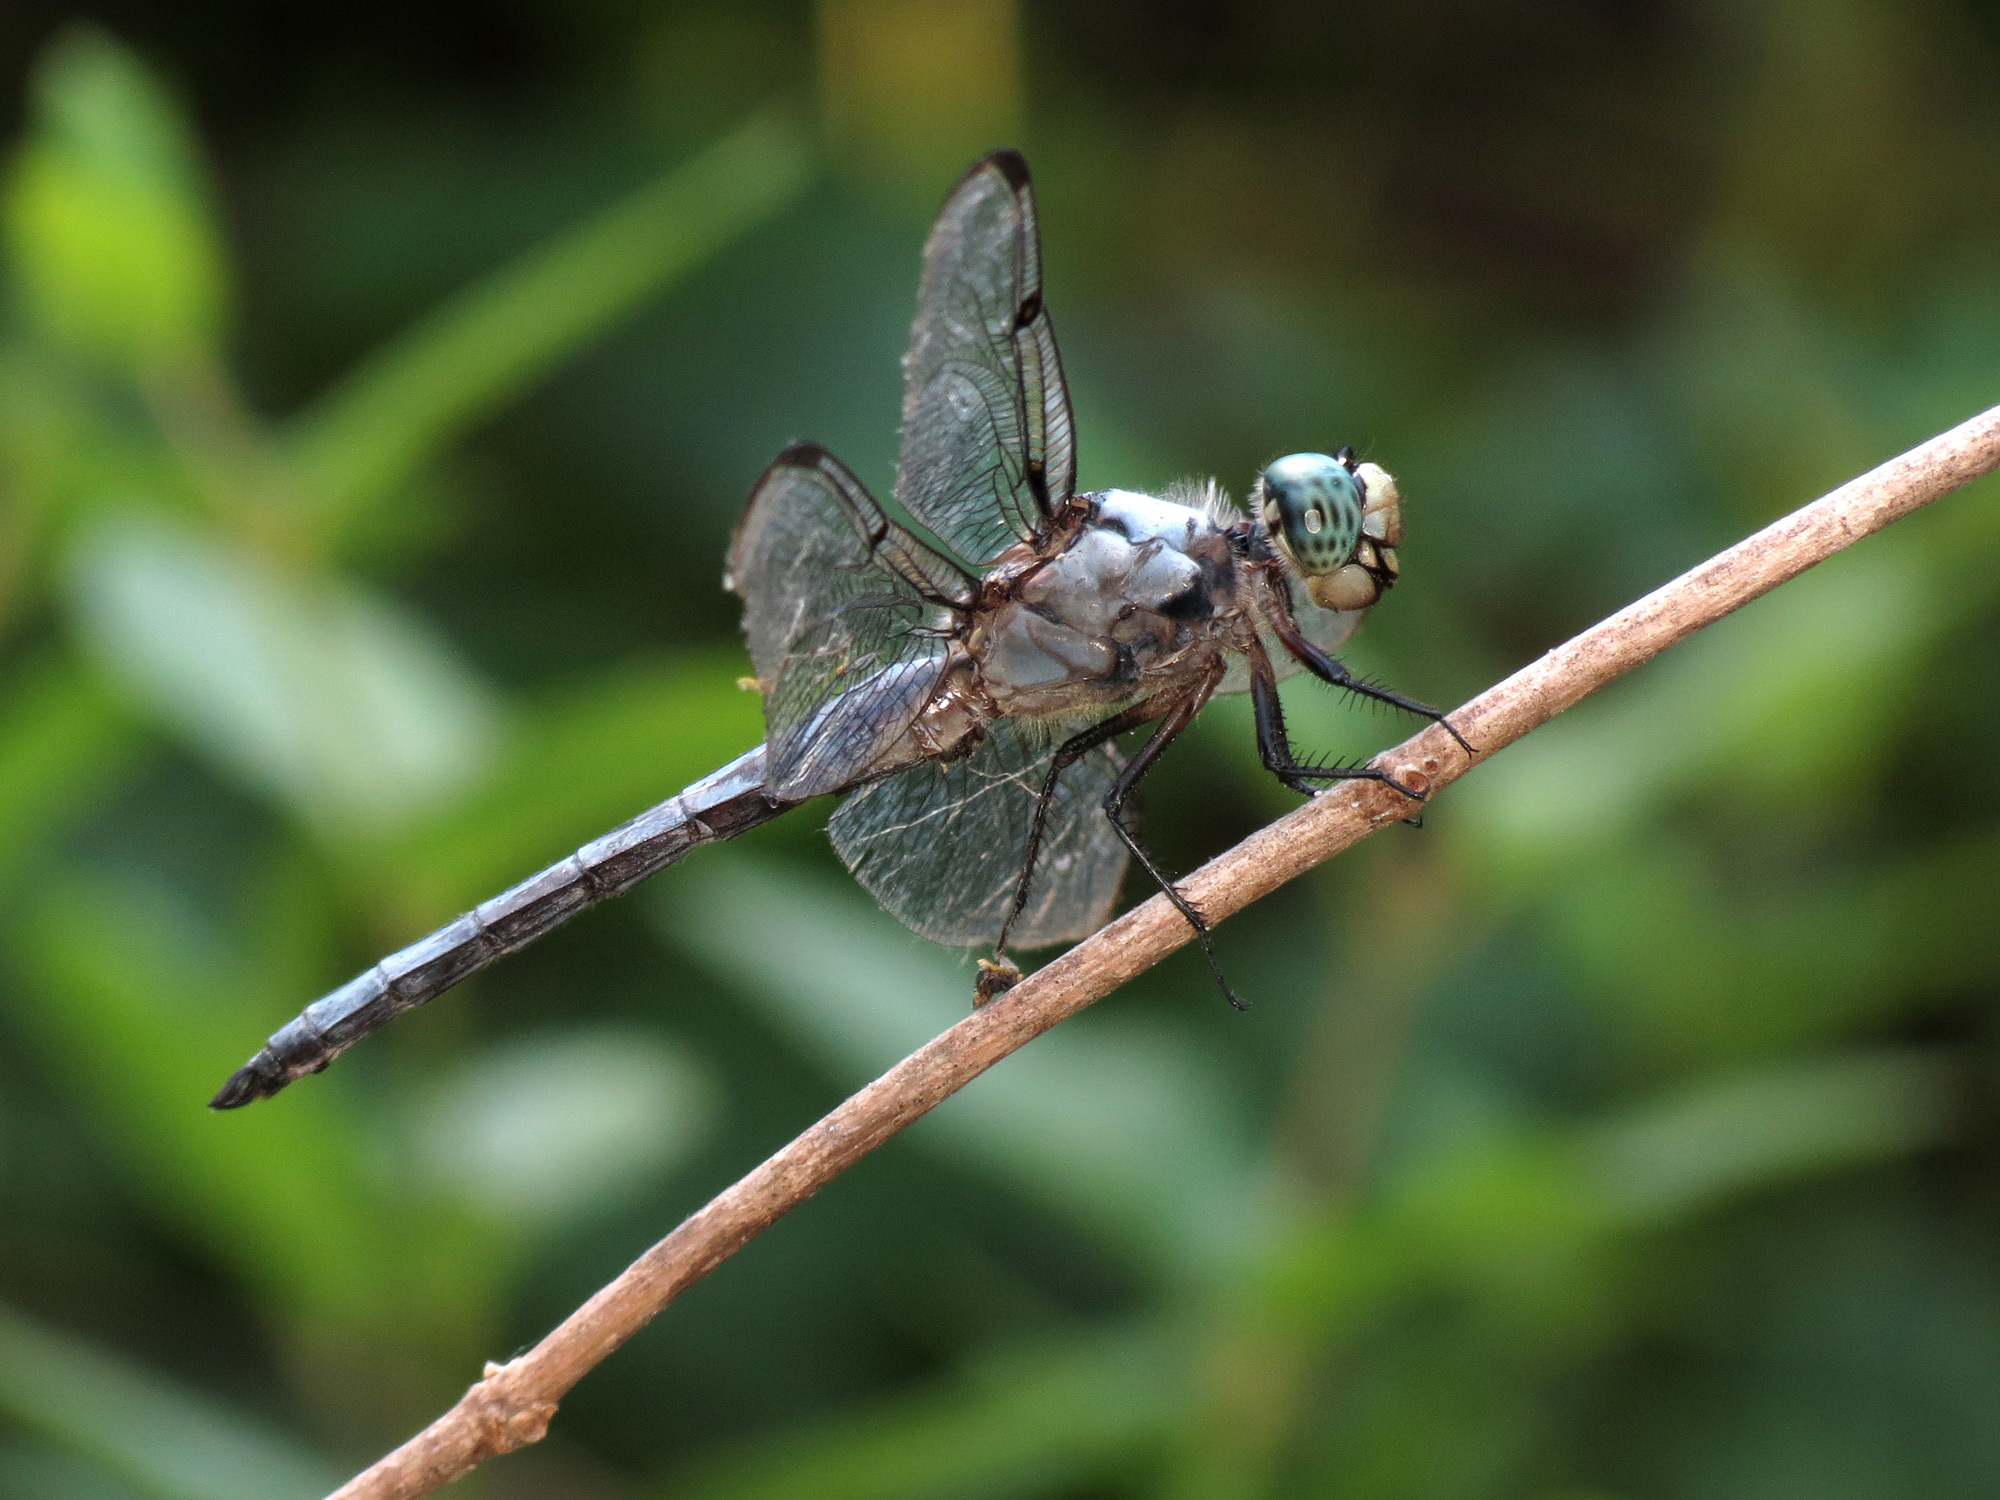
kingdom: Animalia
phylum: Arthropoda
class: Insecta
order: Odonata
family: Libellulidae
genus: Libellula
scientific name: Libellula vibrans
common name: Great blue skimmer
